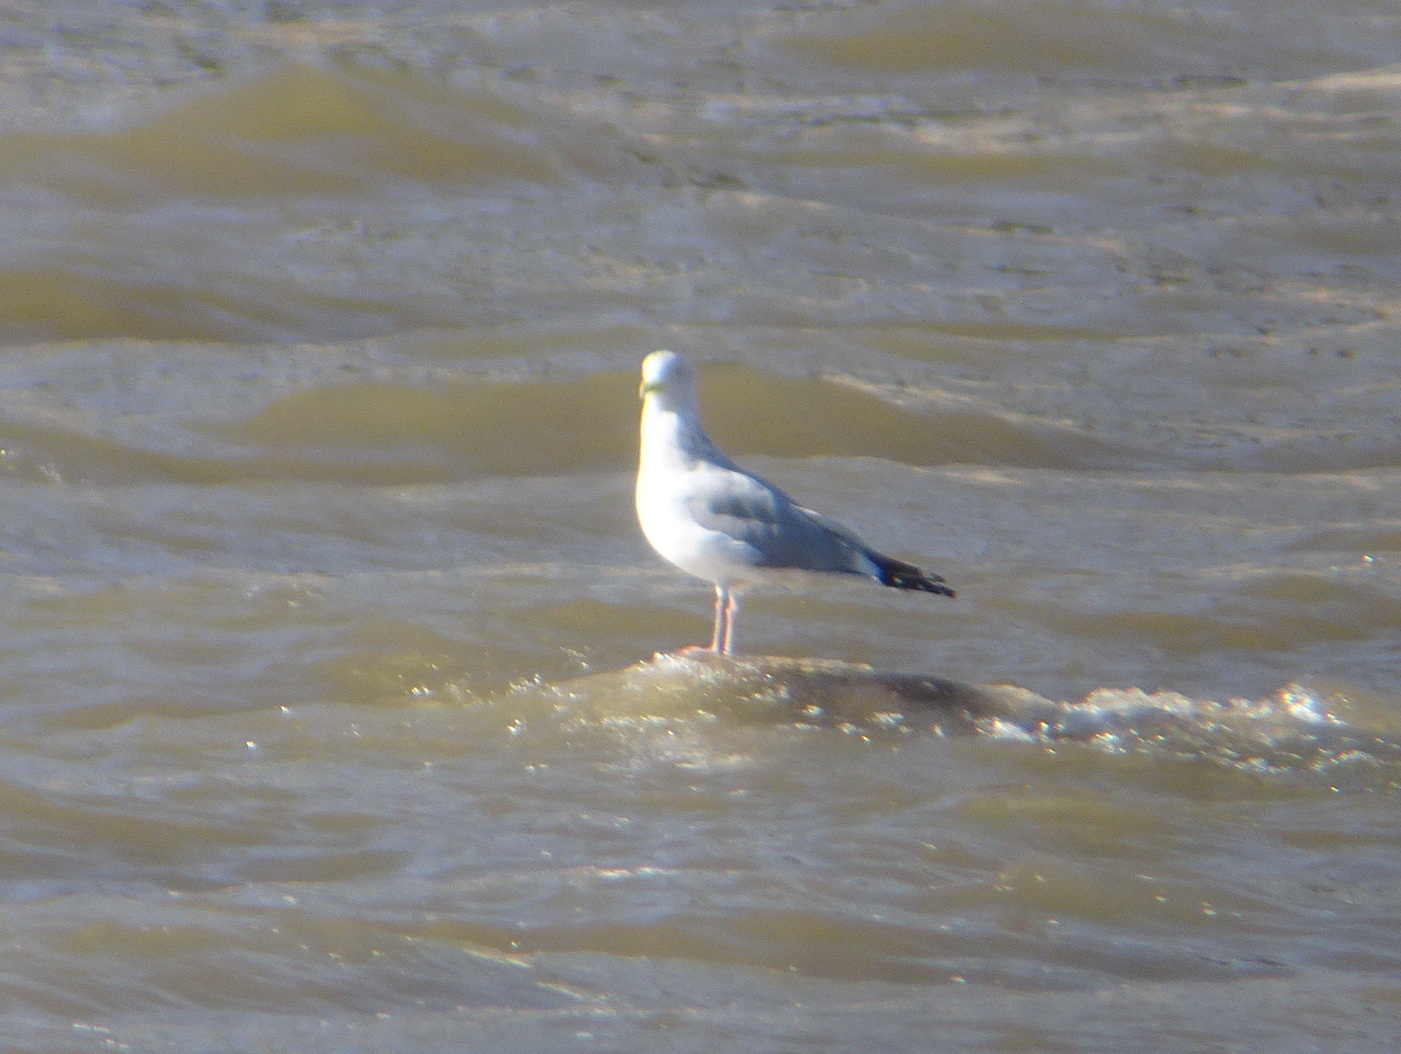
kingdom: Animalia
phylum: Chordata
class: Aves
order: Charadriiformes
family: Laridae
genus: Larus
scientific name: Larus argentatus
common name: Herring gull
